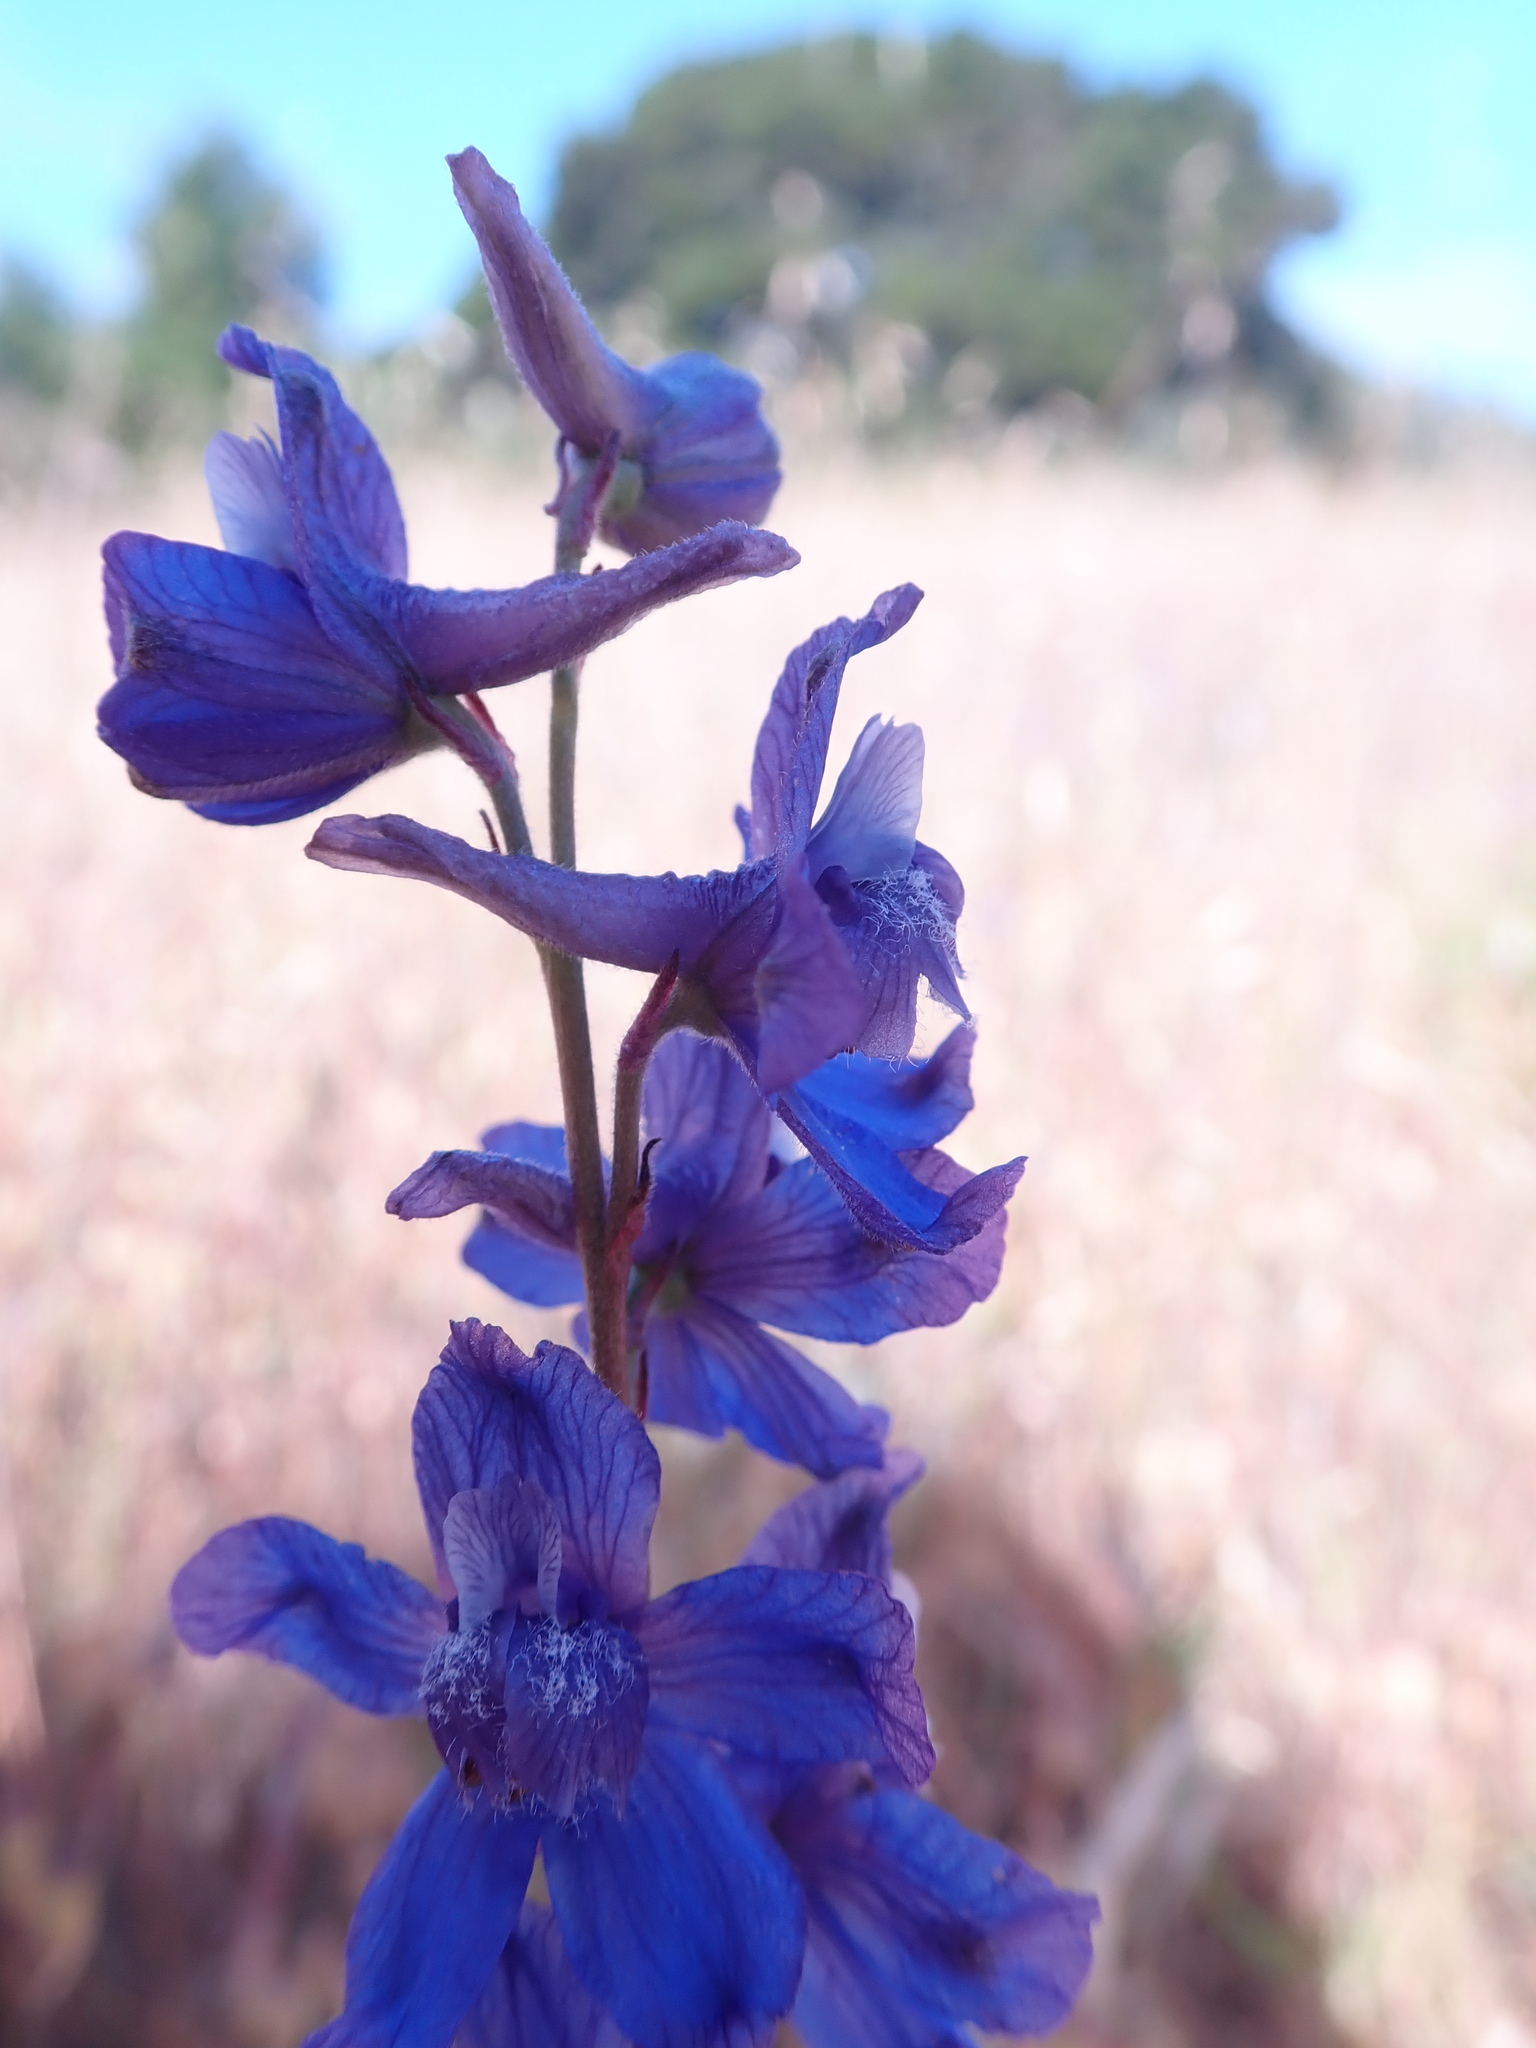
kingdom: Plantae
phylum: Tracheophyta
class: Magnoliopsida
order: Ranunculales
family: Ranunculaceae
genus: Delphinium
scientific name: Delphinium parryi
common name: Parry's larkspur
